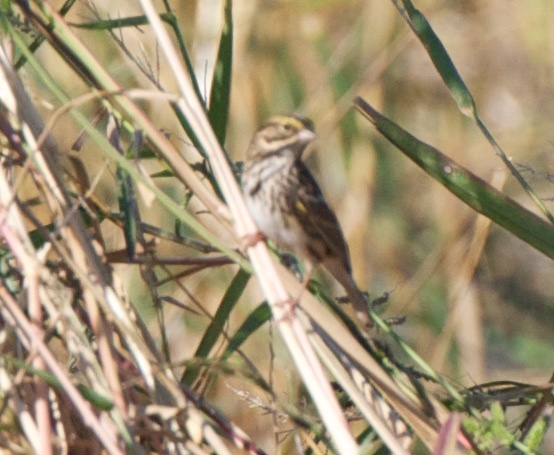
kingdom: Animalia
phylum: Chordata
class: Aves
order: Passeriformes
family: Passerellidae
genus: Passerculus
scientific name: Passerculus sandwichensis
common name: Savannah sparrow
